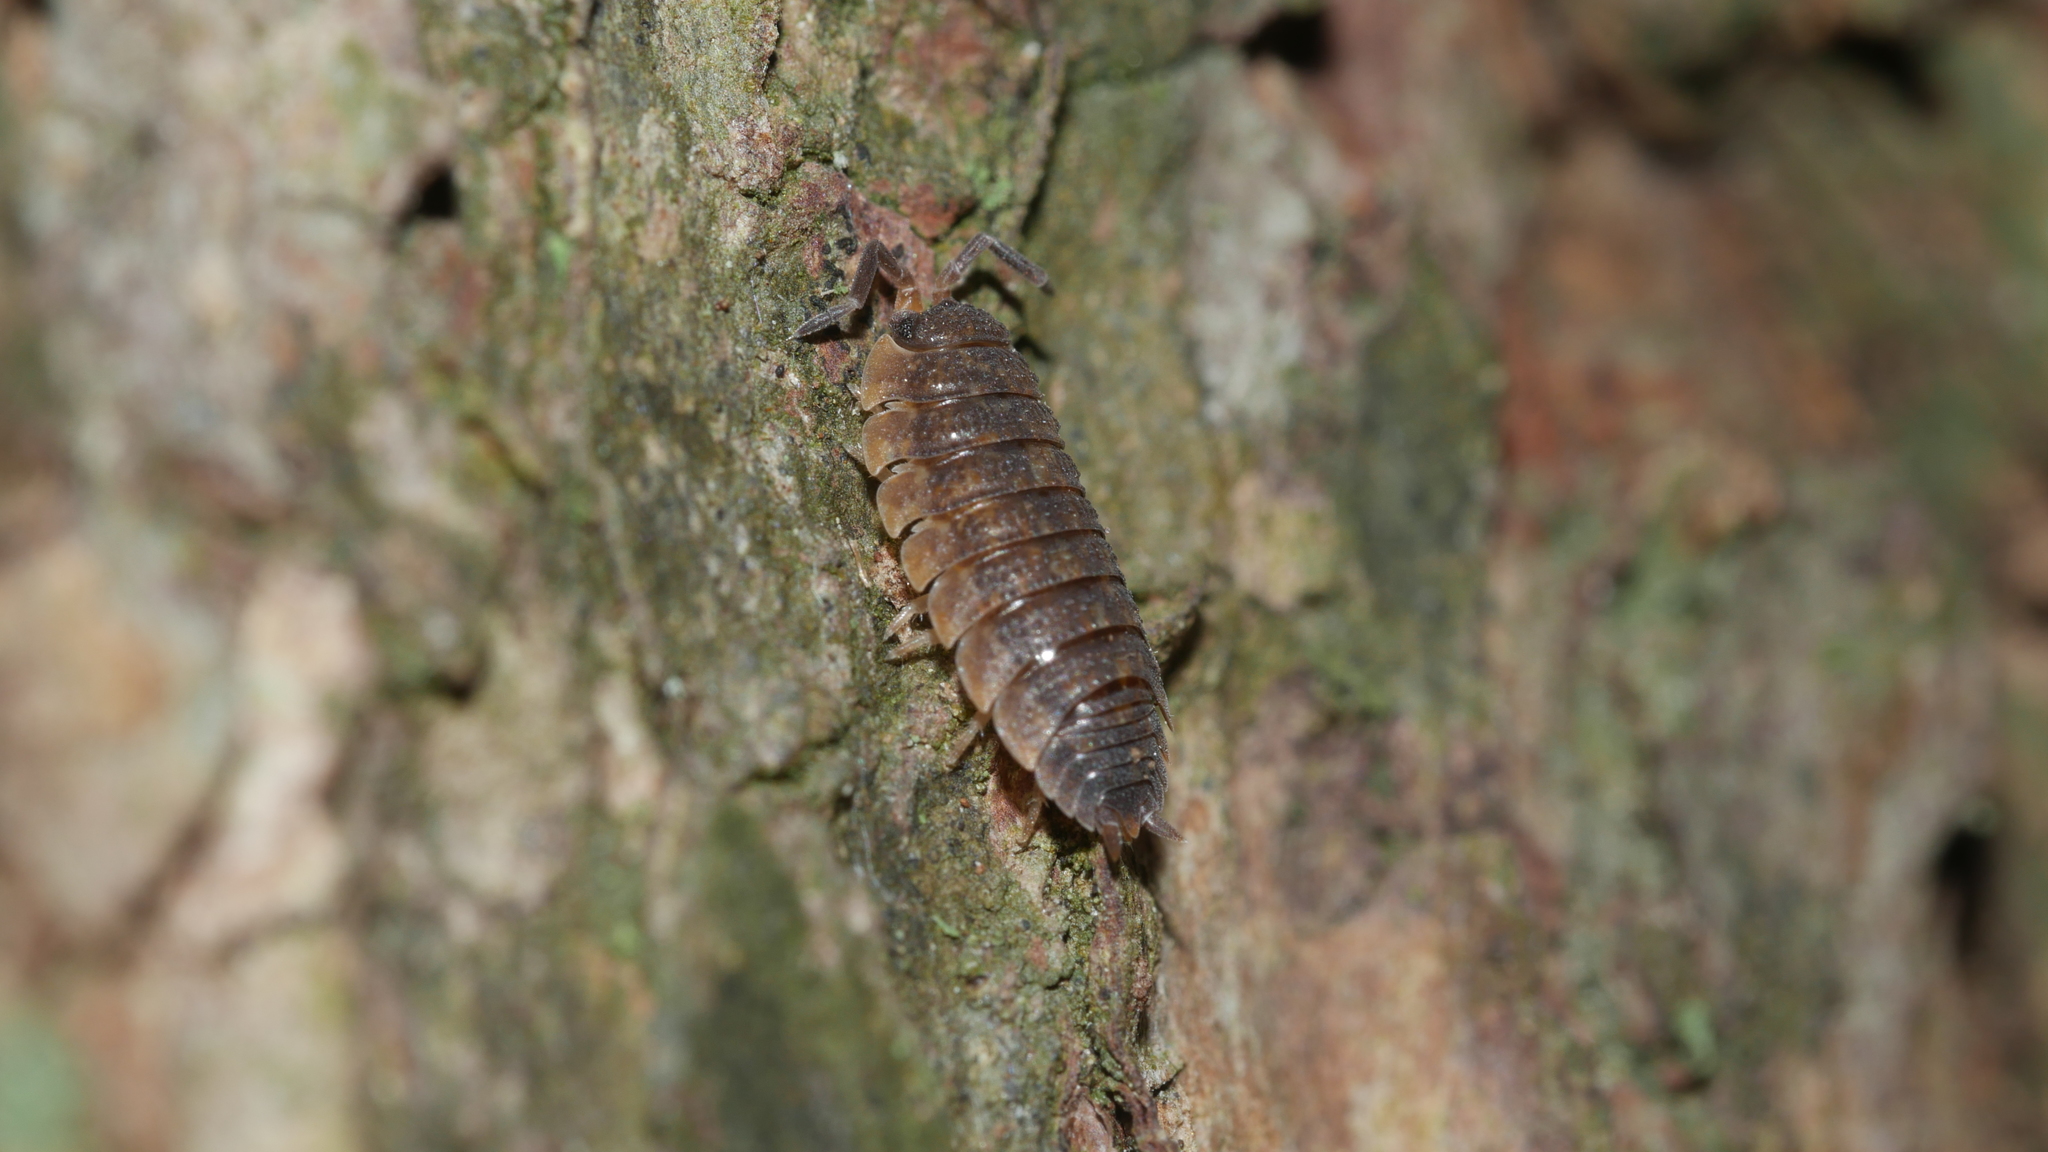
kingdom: Animalia
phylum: Arthropoda
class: Malacostraca
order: Isopoda
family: Porcellionidae
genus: Porcellio
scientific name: Porcellio scaber
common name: Common rough woodlouse
